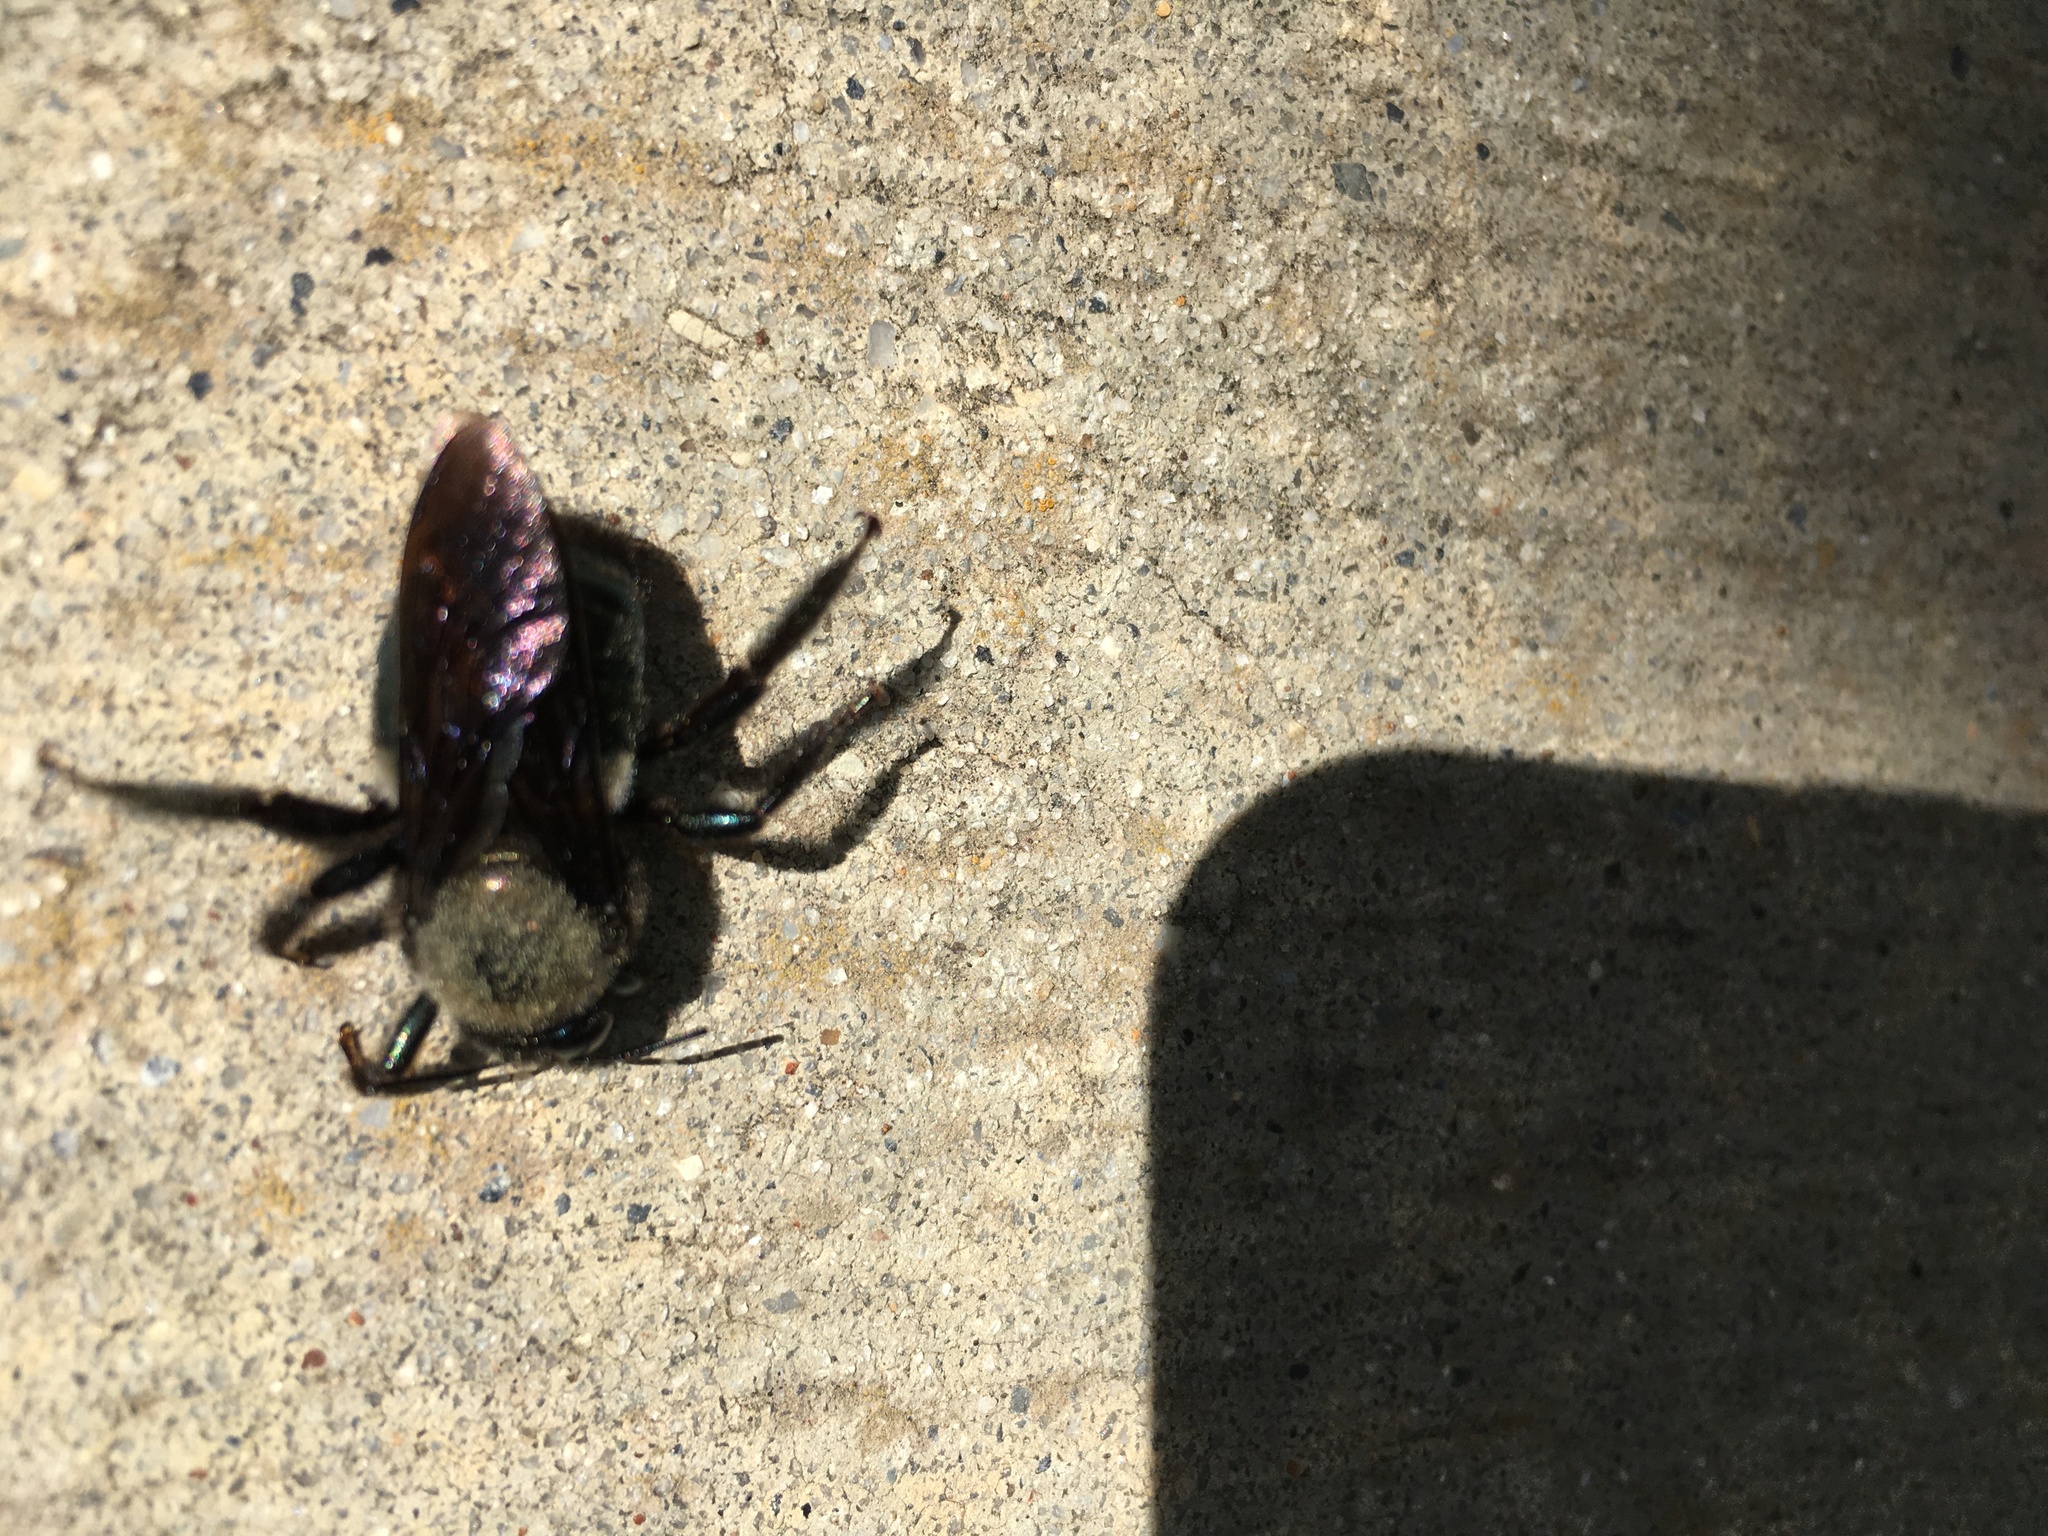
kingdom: Animalia
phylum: Arthropoda
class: Insecta
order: Hymenoptera
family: Apidae
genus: Xylocopa
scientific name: Xylocopa californica
